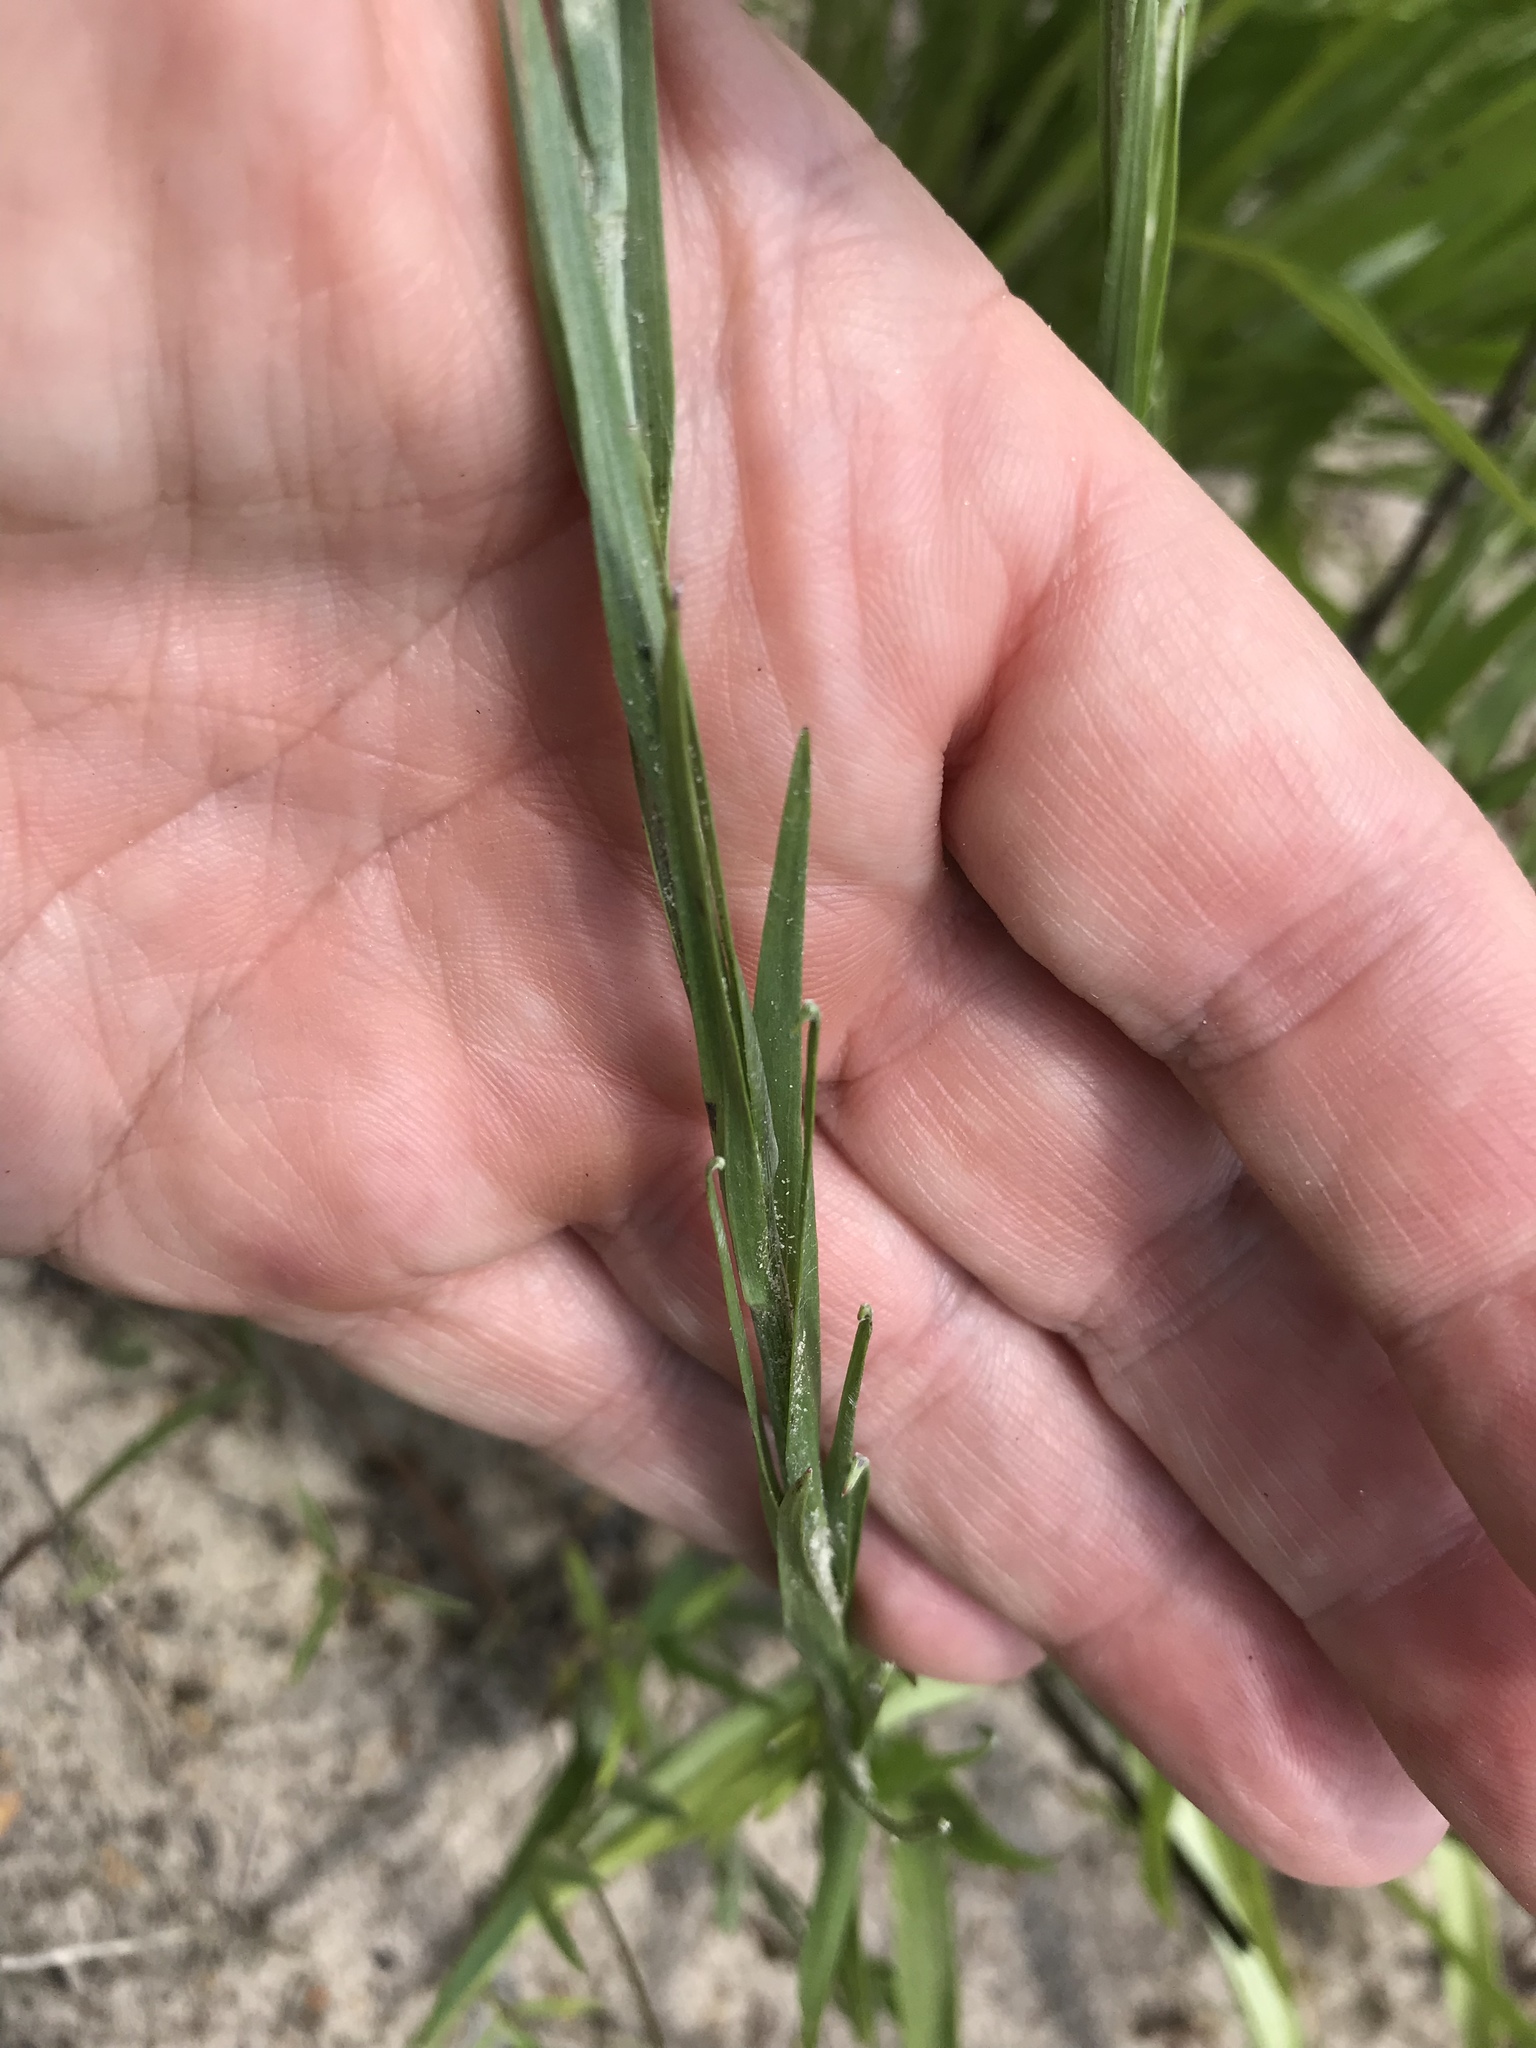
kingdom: Plantae
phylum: Tracheophyta
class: Magnoliopsida
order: Asterales
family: Asteraceae
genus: Pityopsis
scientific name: Pityopsis graminifolia
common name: Grass-leaf golden-aster
